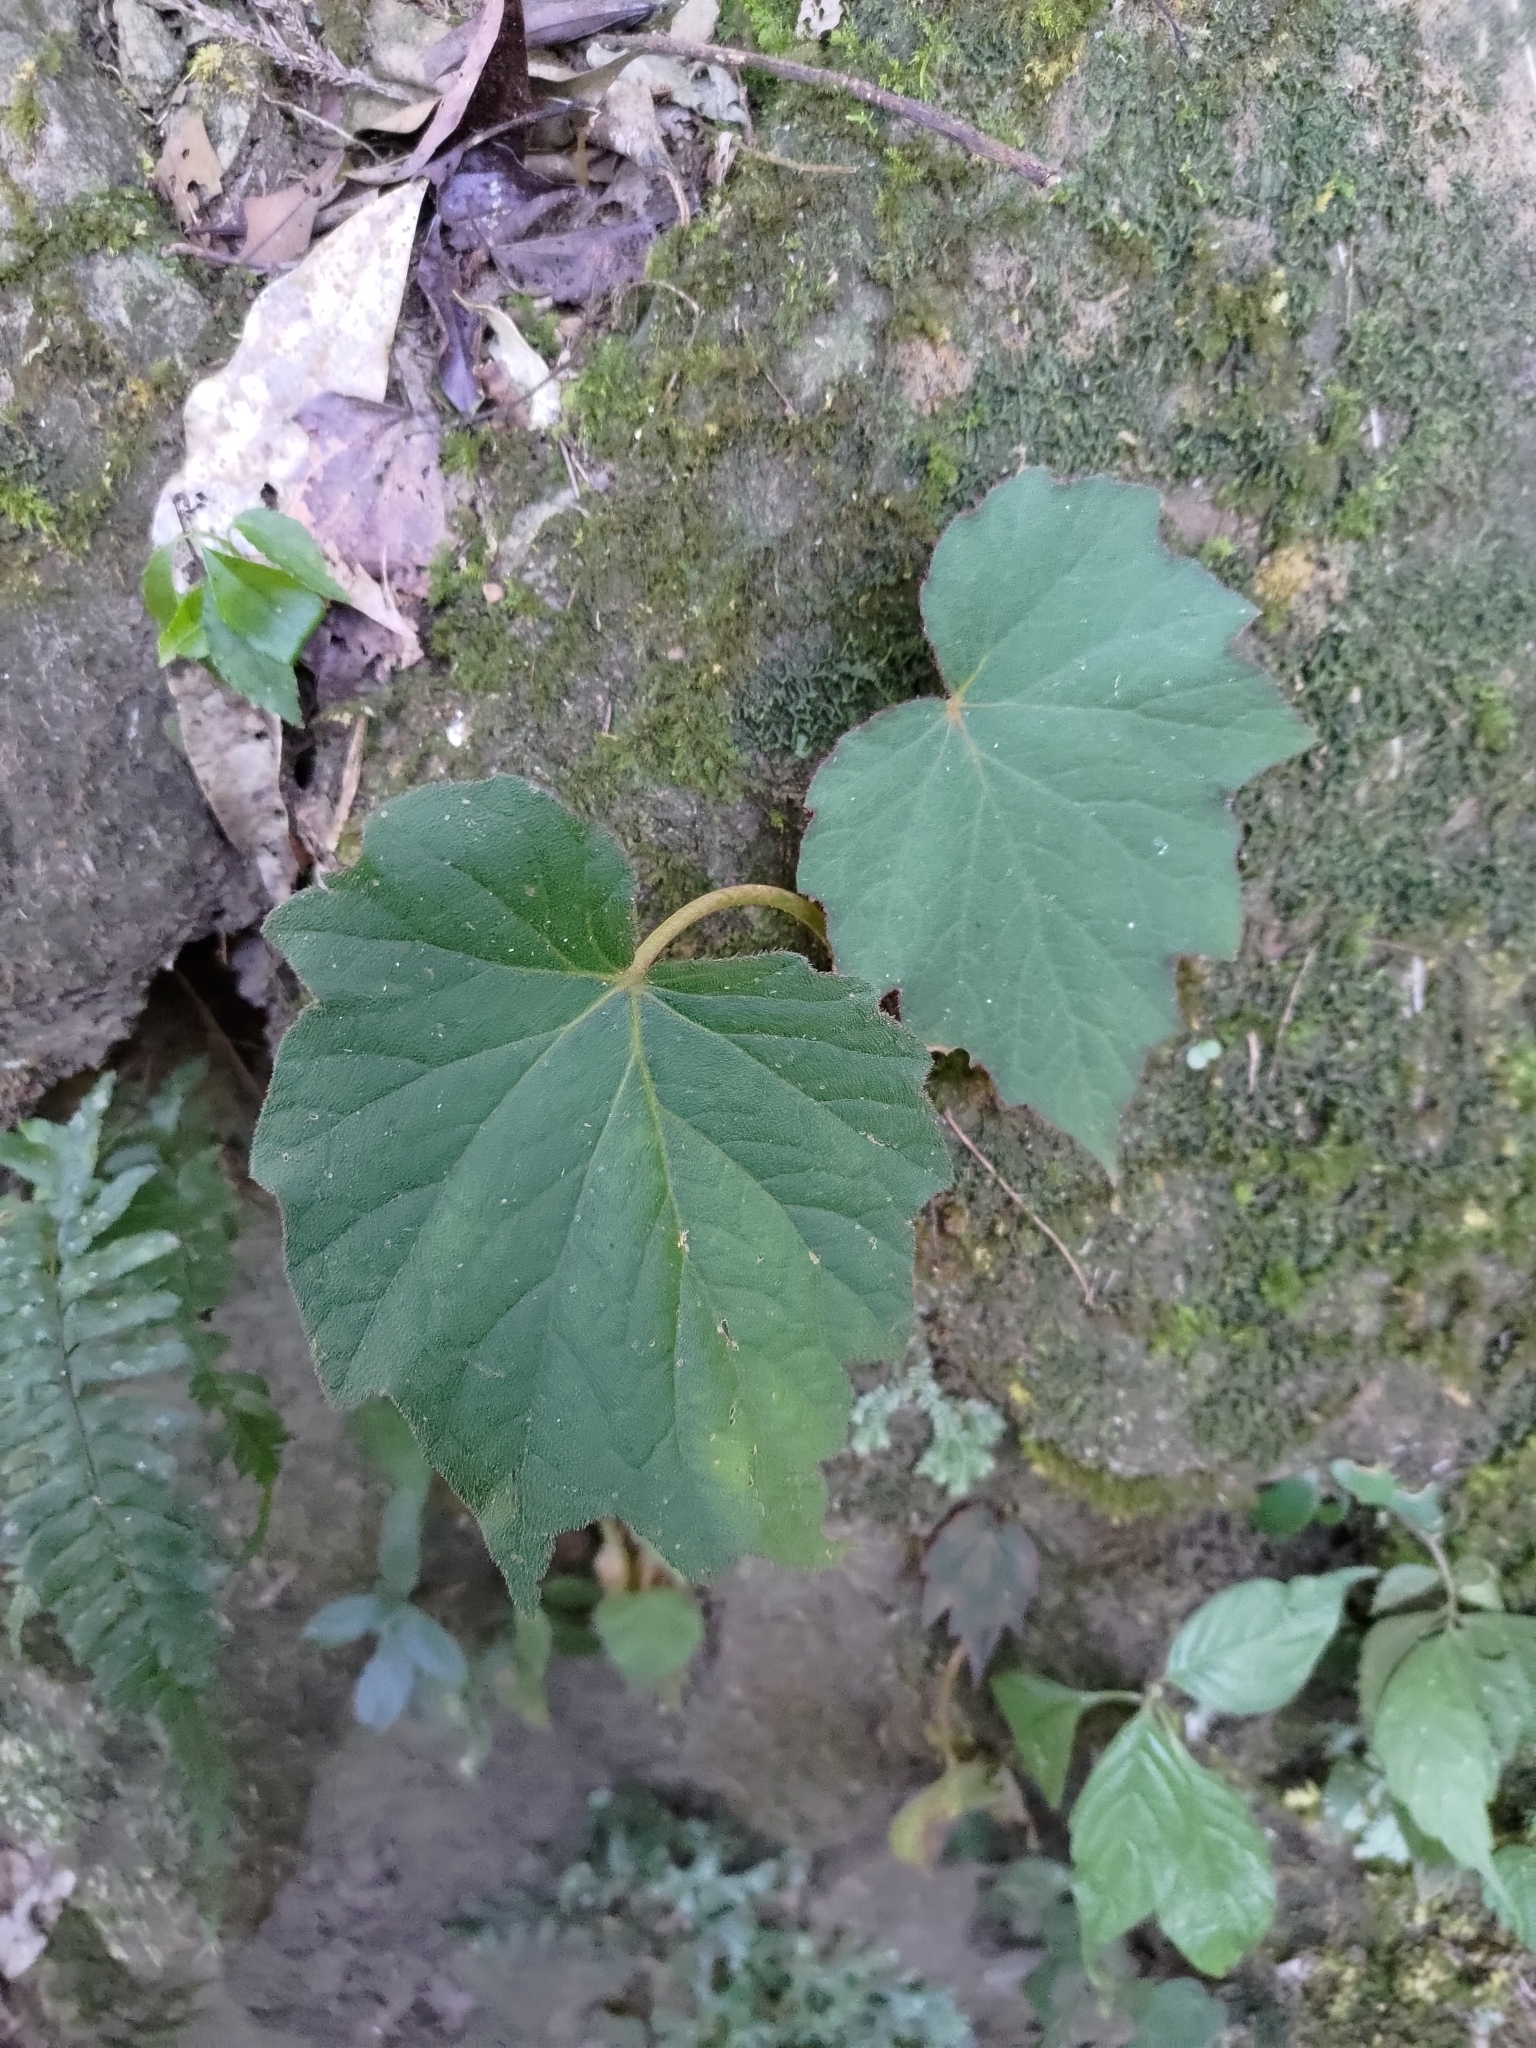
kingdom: Plantae
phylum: Tracheophyta
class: Magnoliopsida
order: Cucurbitales
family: Begoniaceae
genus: Begonia
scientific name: Begonia palmata
